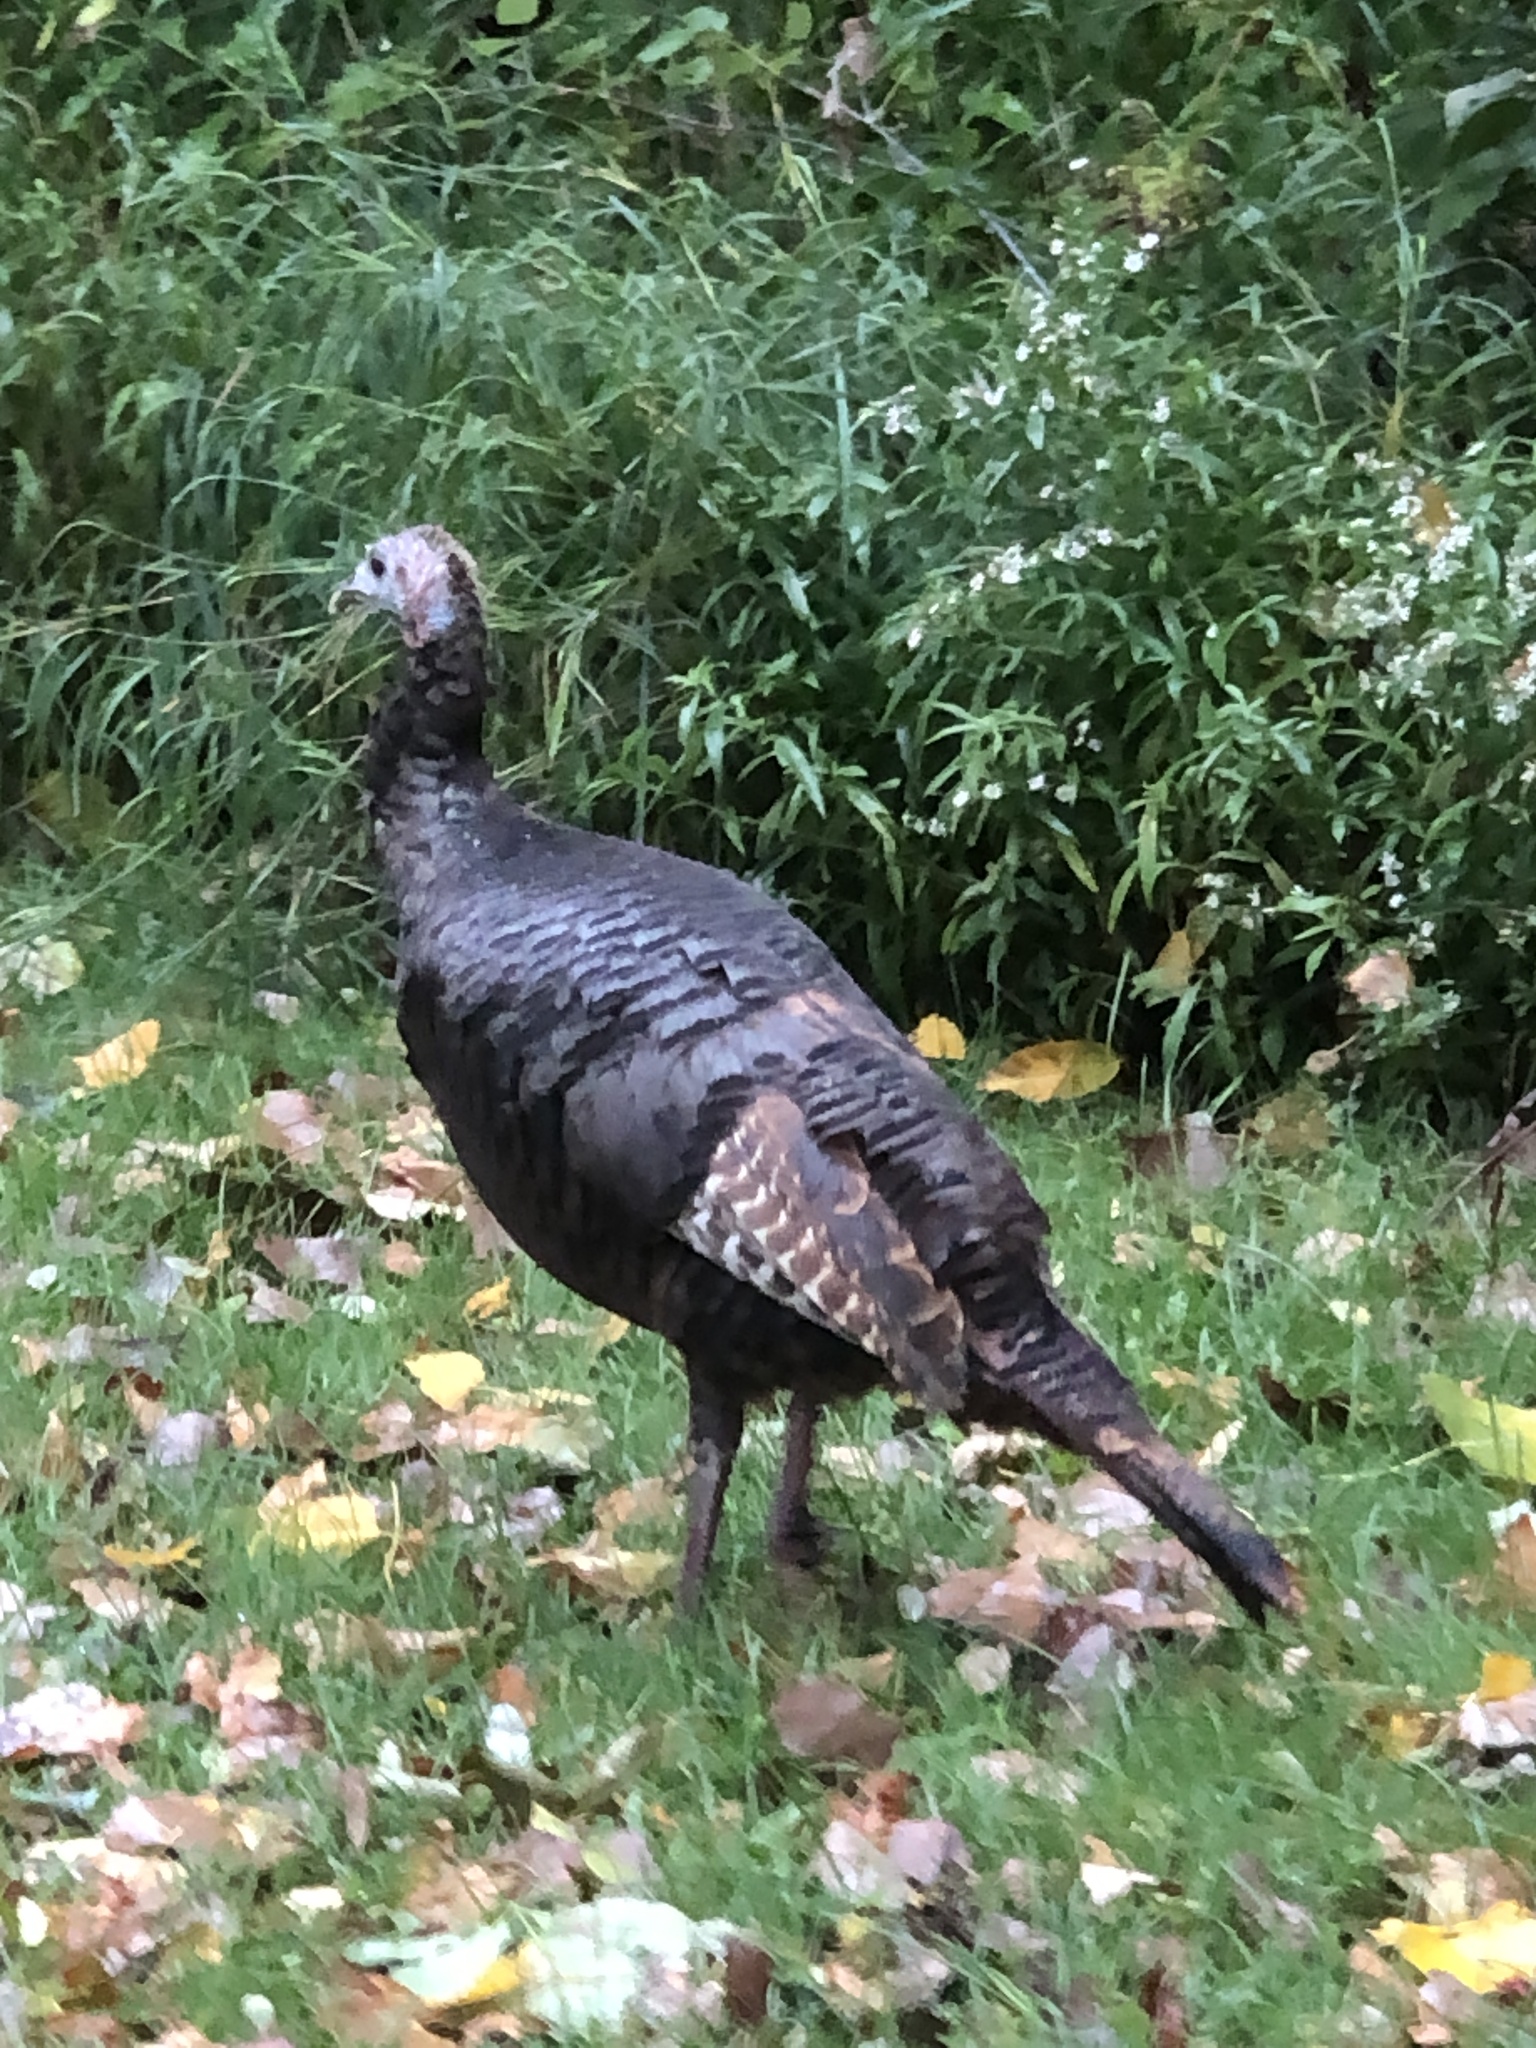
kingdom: Animalia
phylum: Chordata
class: Aves
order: Galliformes
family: Phasianidae
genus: Meleagris
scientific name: Meleagris gallopavo
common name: Wild turkey
